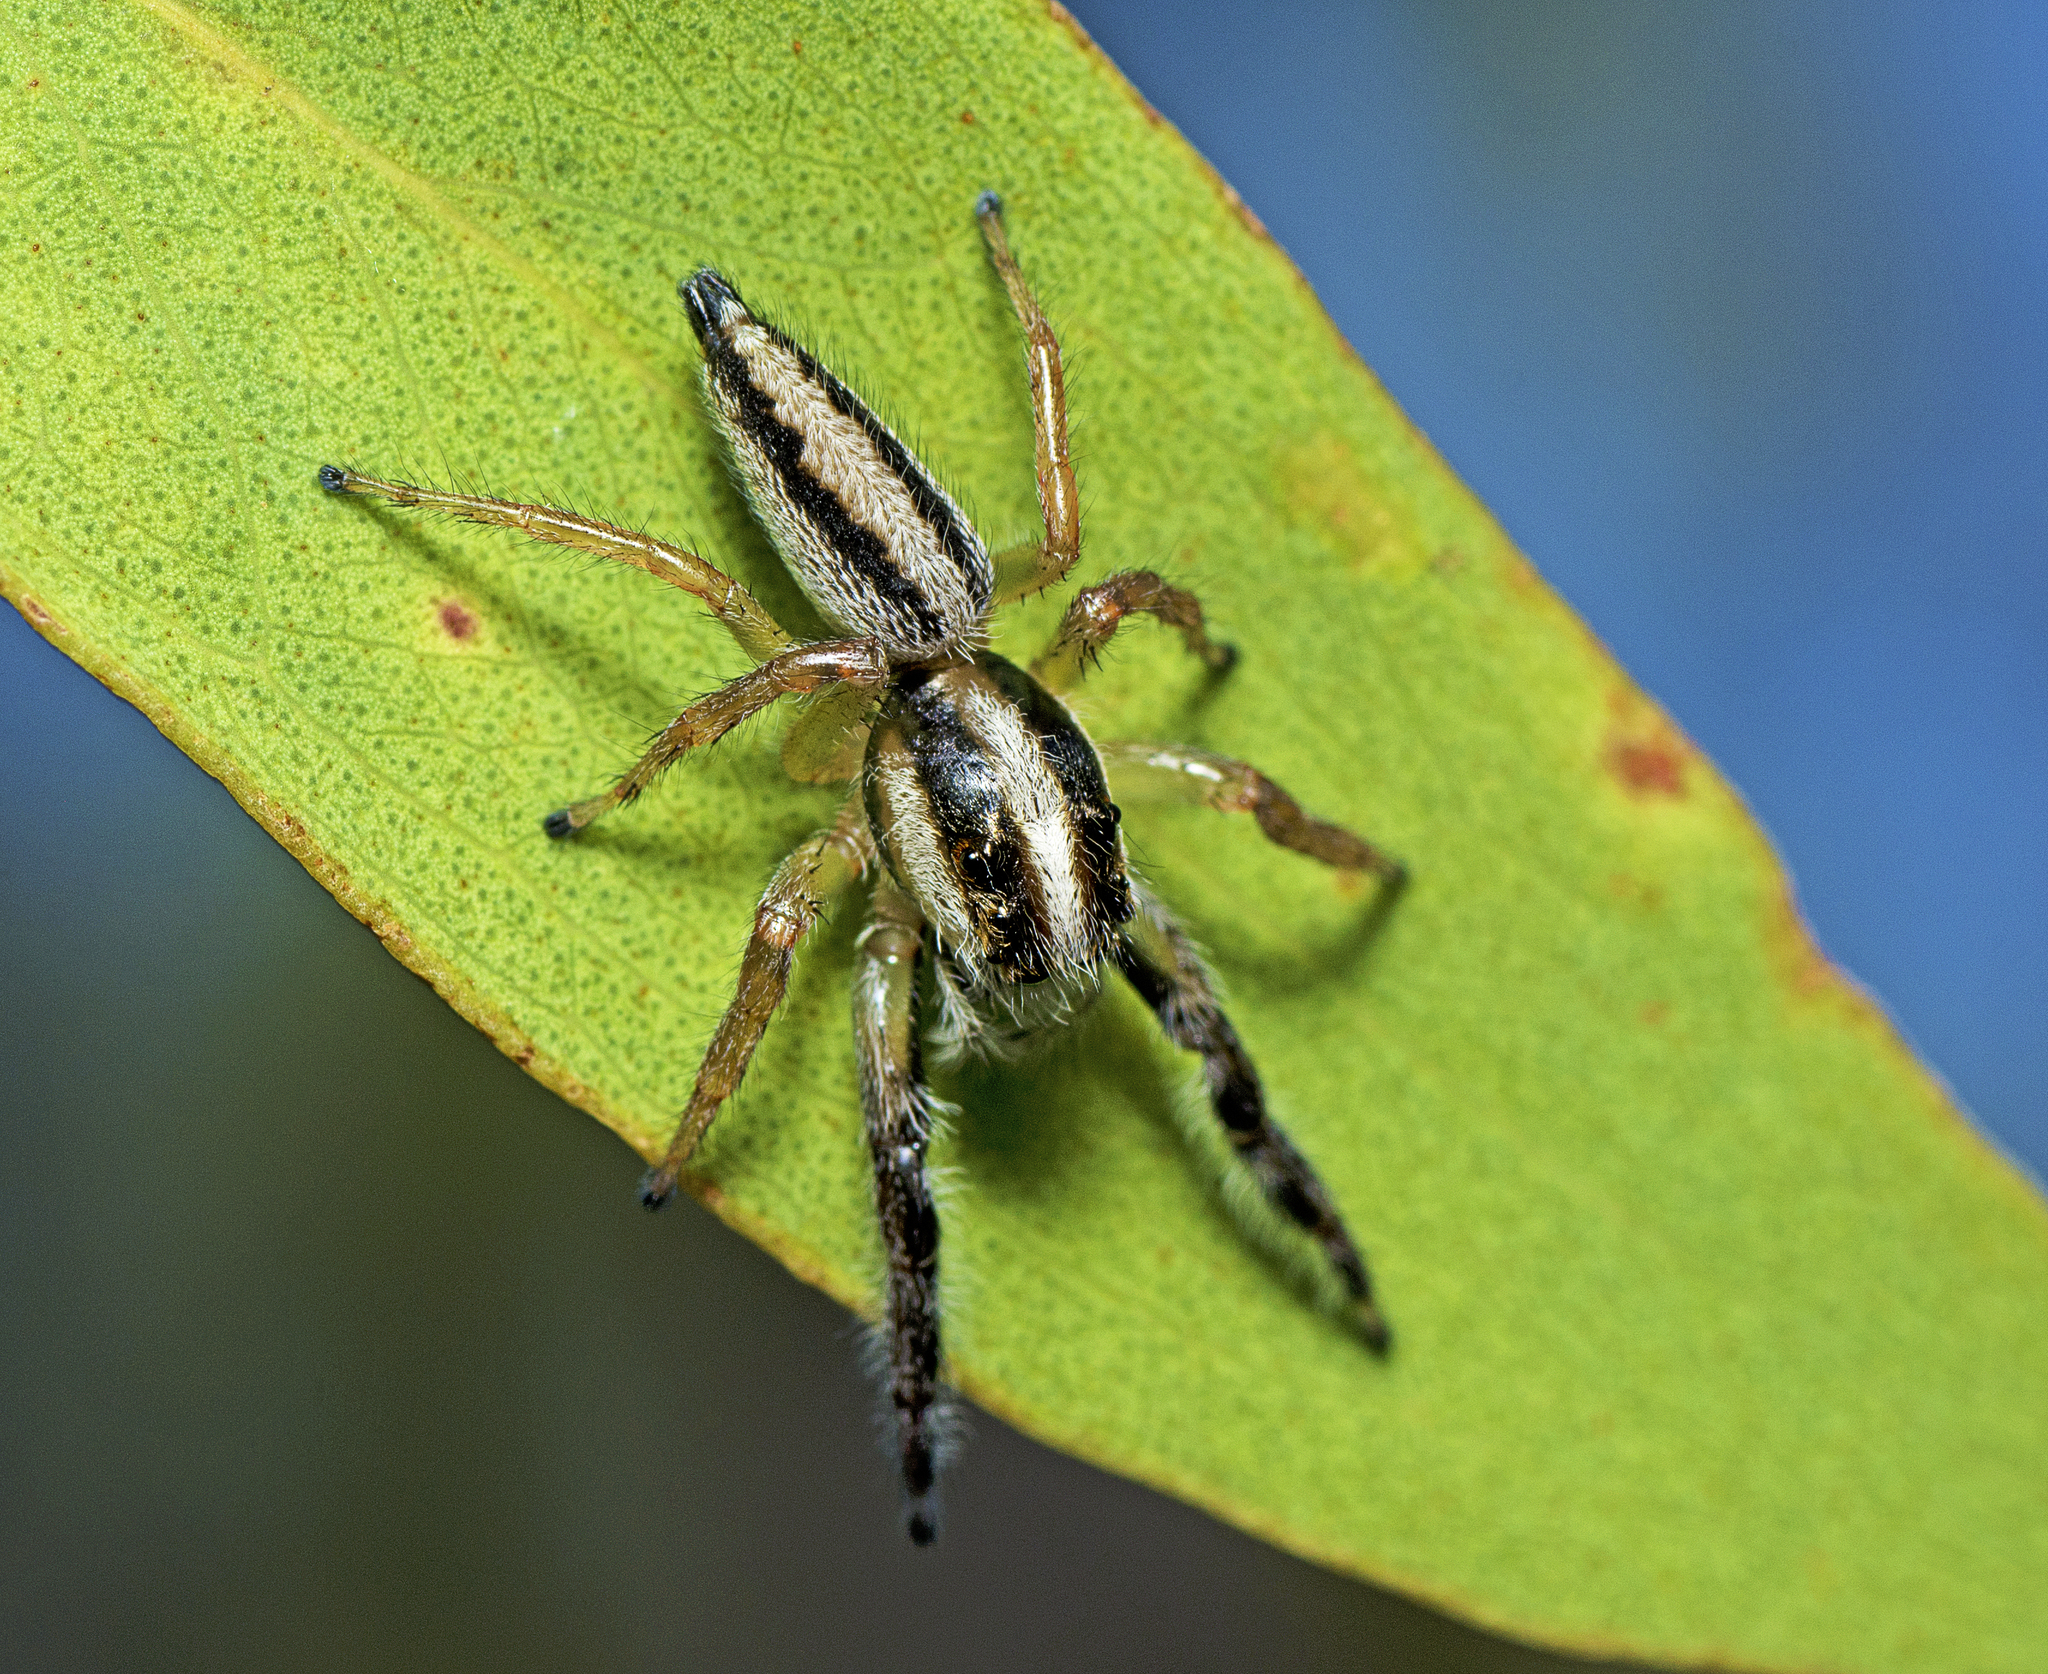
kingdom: Animalia
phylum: Arthropoda
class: Arachnida
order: Araneae
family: Salticidae
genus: Mopsolodes
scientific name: Mopsolodes australensis
